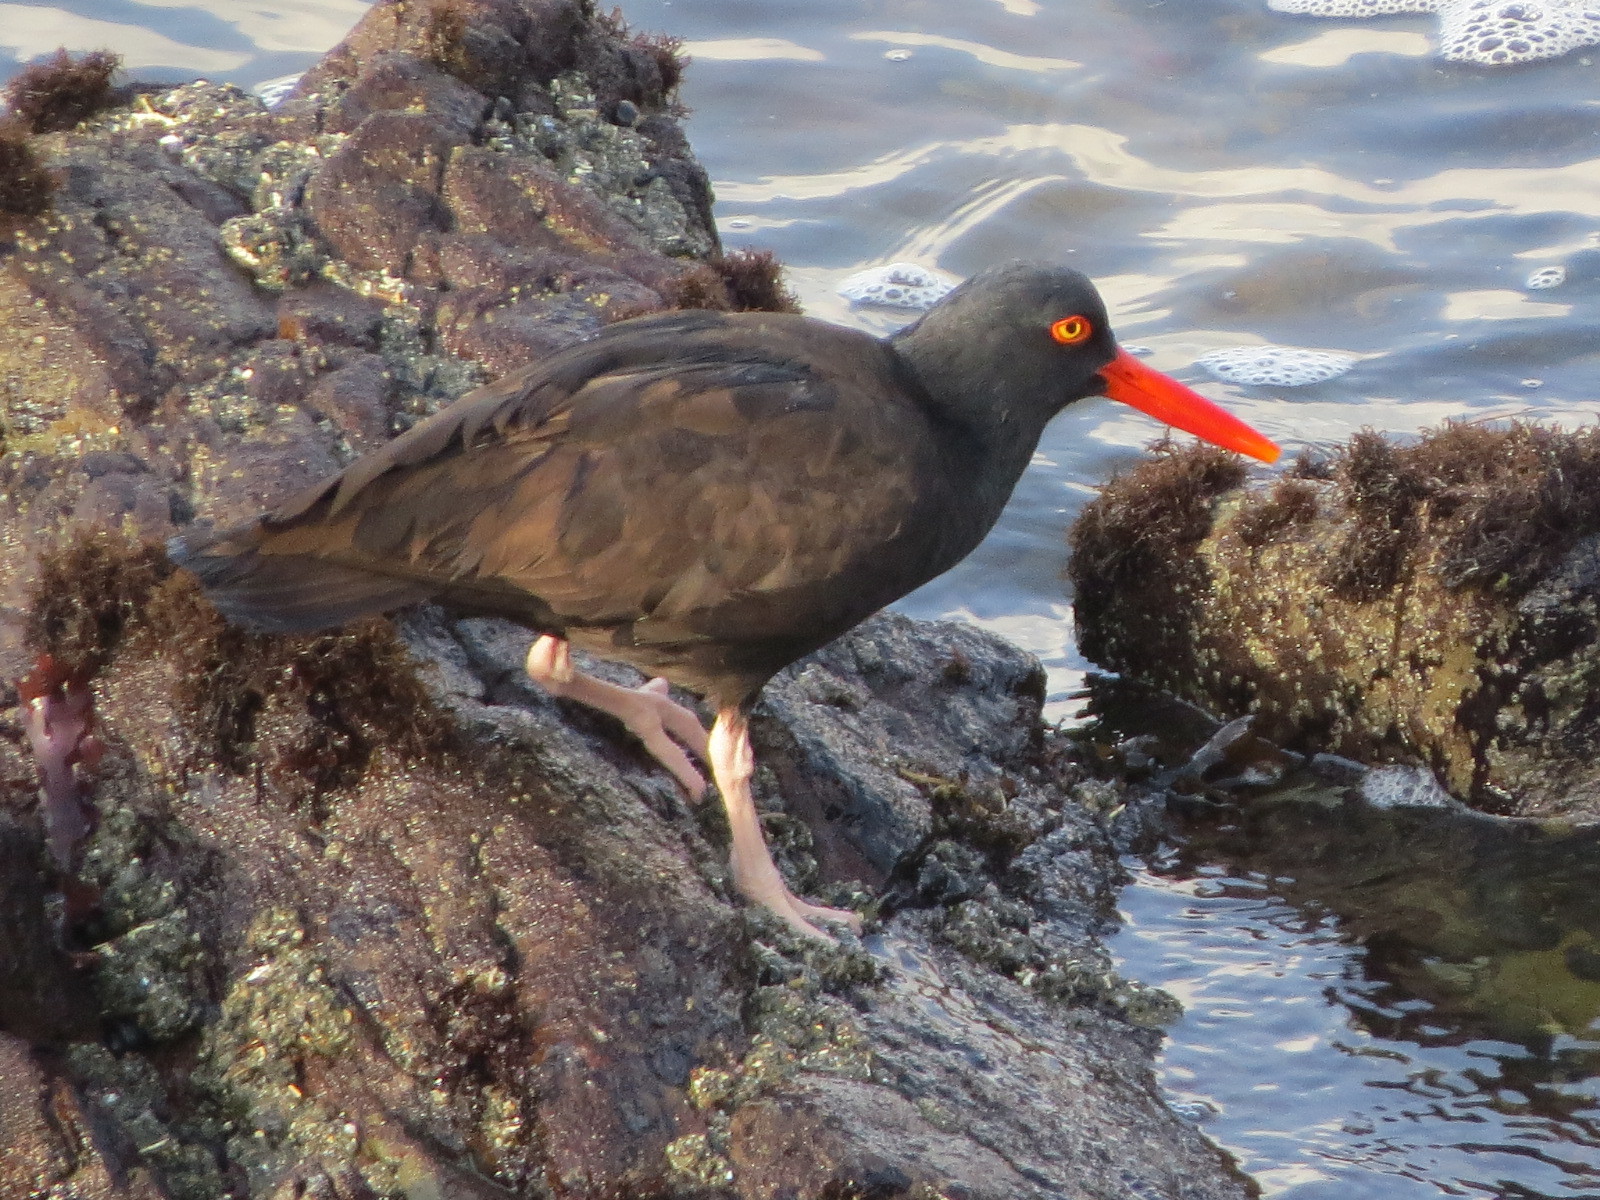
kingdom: Animalia
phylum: Chordata
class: Aves
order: Charadriiformes
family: Haematopodidae
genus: Haematopus
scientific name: Haematopus bachmani
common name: Black oystercatcher
